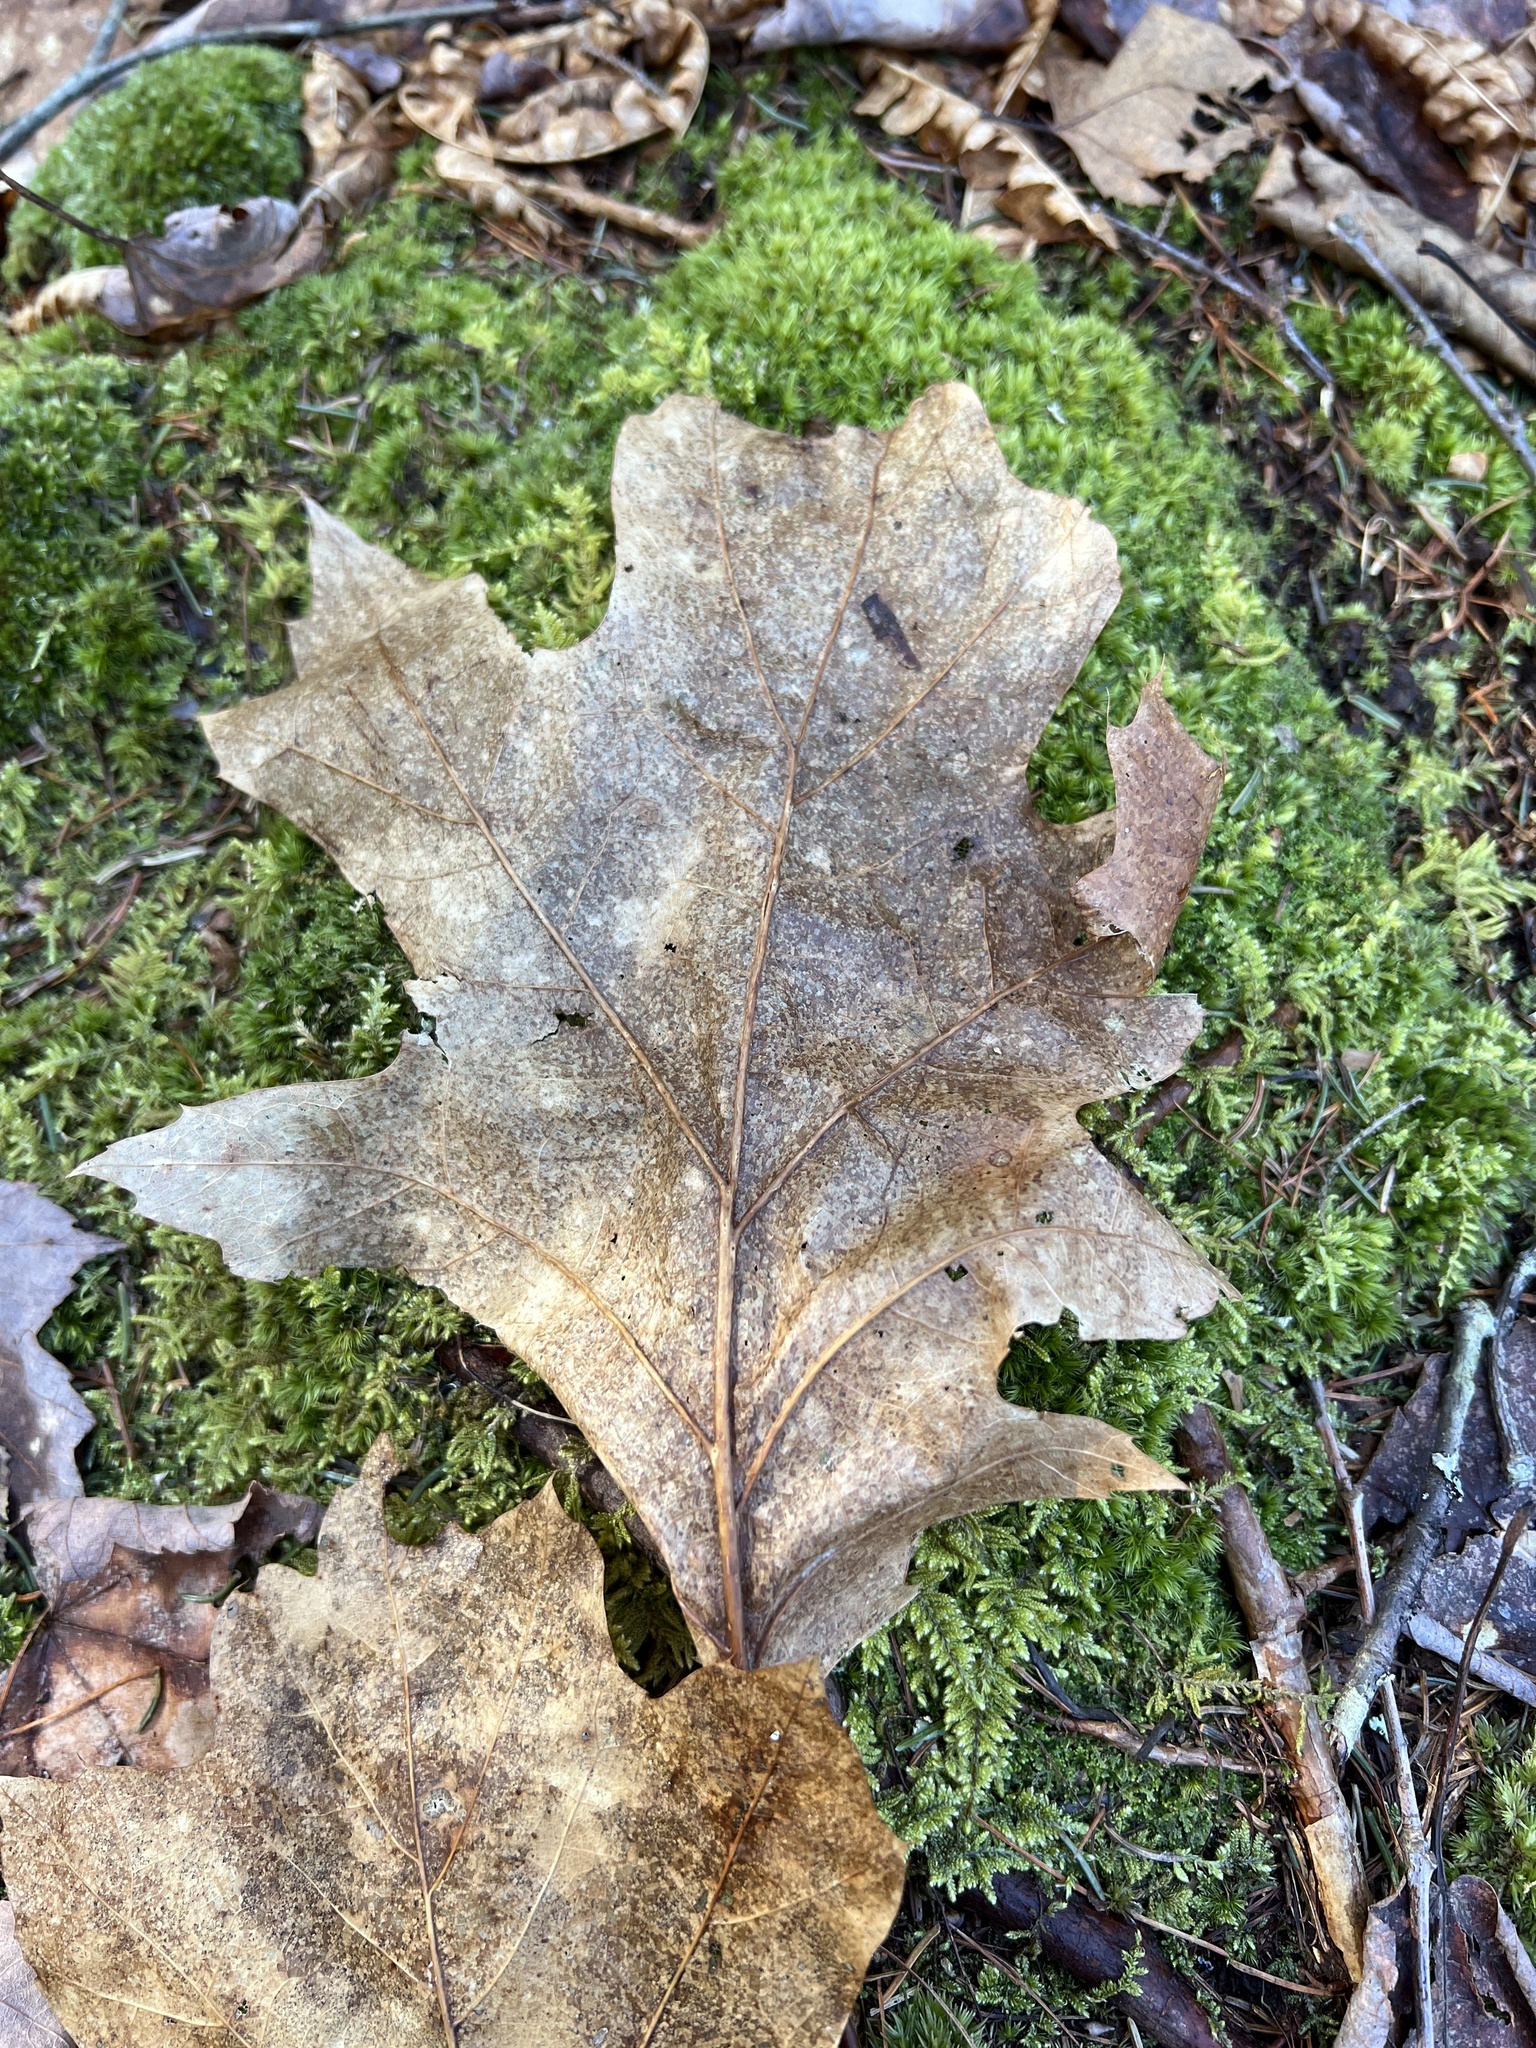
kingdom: Plantae
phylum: Tracheophyta
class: Magnoliopsida
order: Fagales
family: Fagaceae
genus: Quercus
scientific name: Quercus rubra
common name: Red oak
